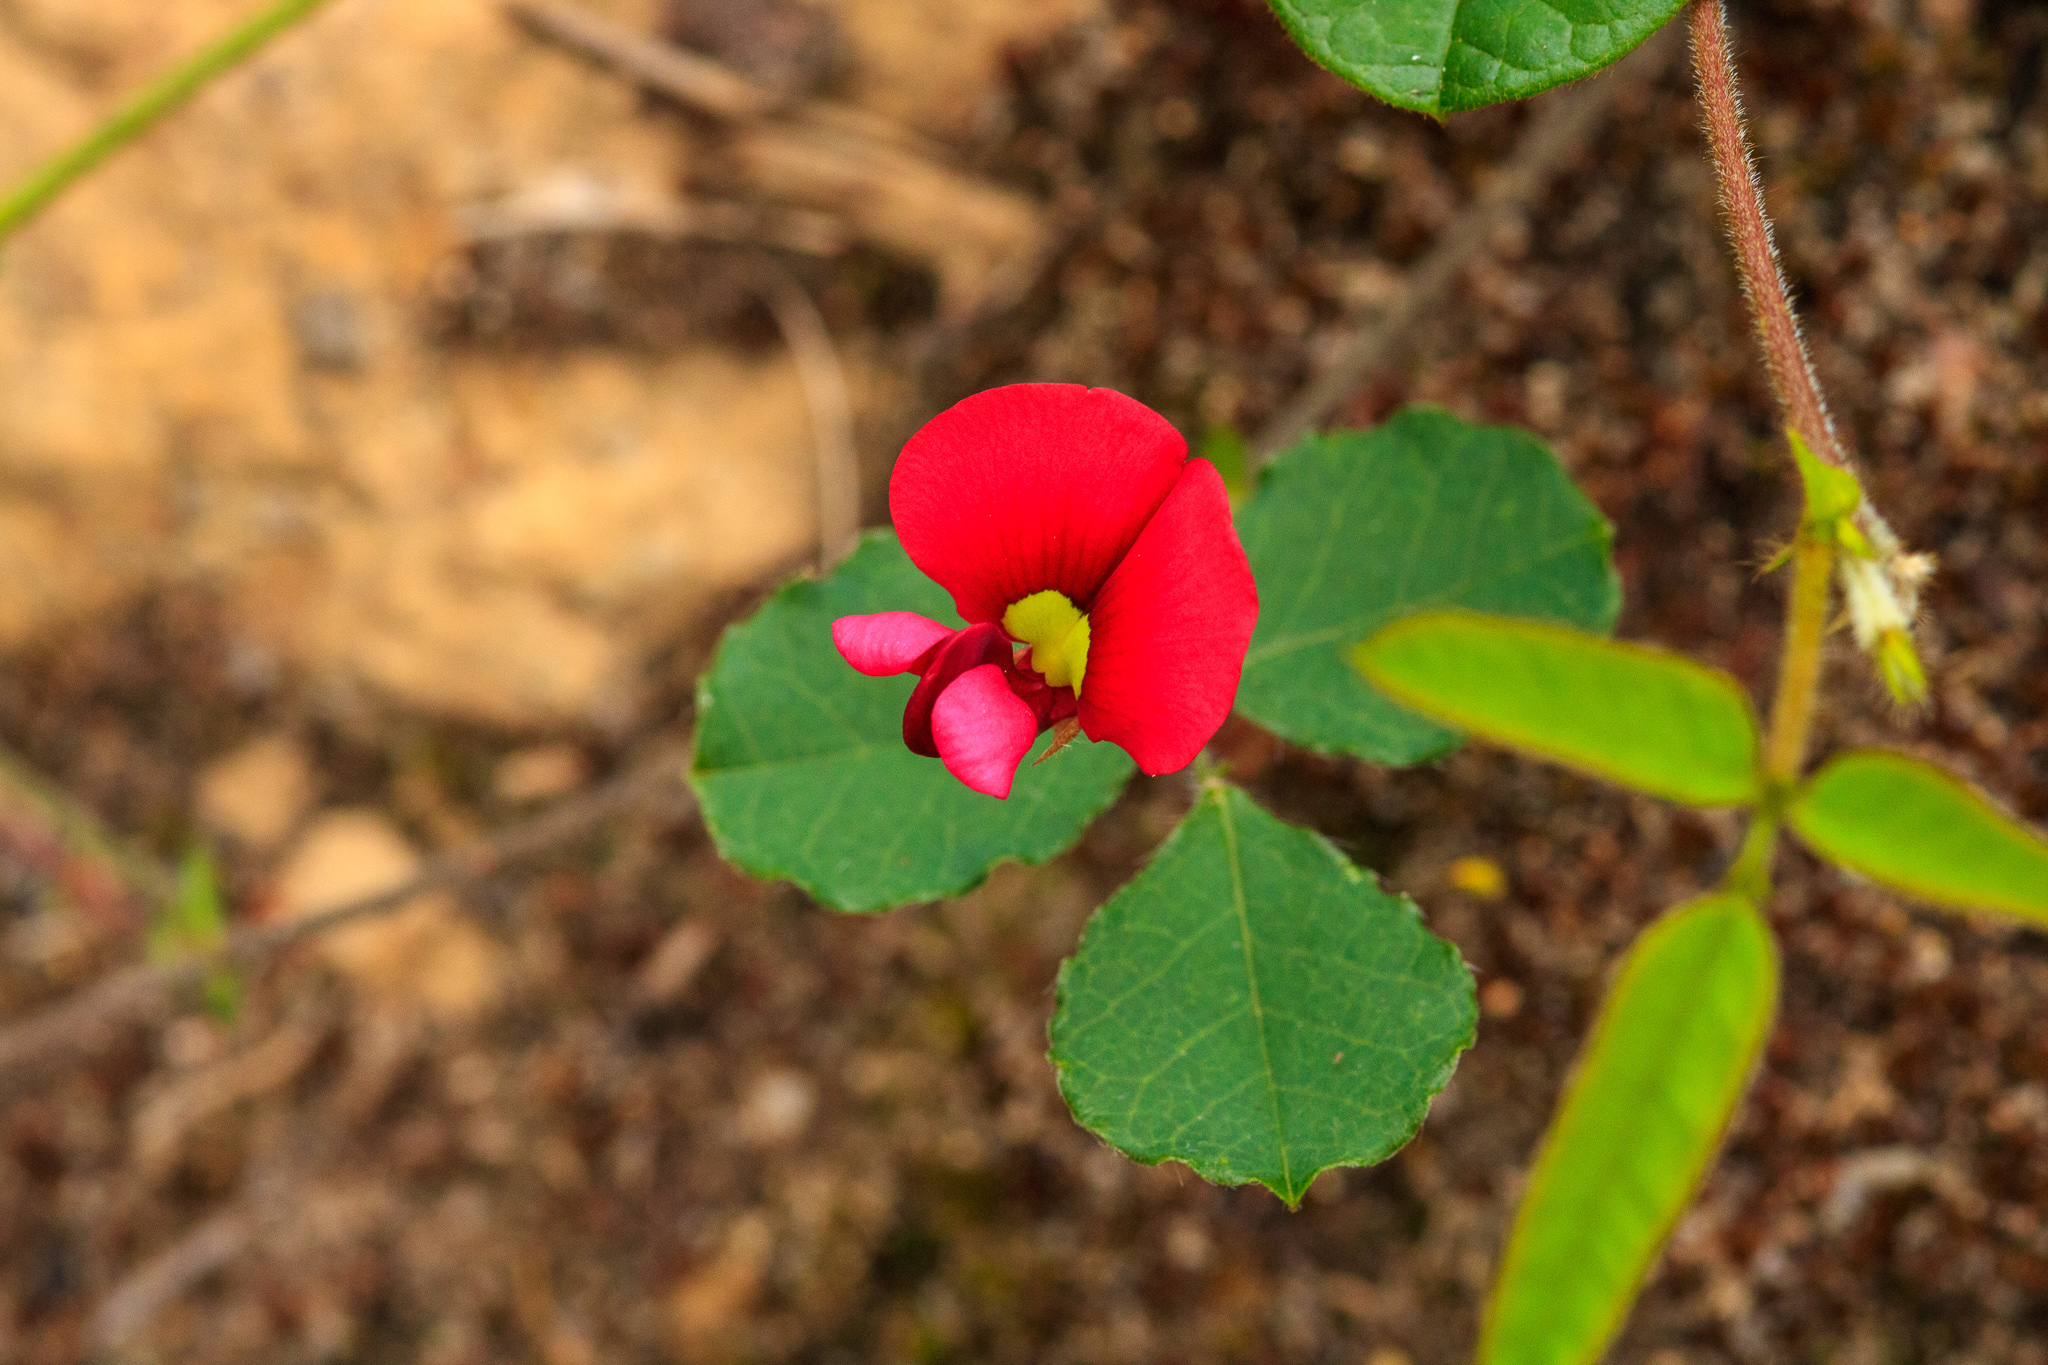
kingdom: Plantae
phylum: Tracheophyta
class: Magnoliopsida
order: Fabales
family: Fabaceae
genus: Kennedia
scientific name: Kennedia carinata
